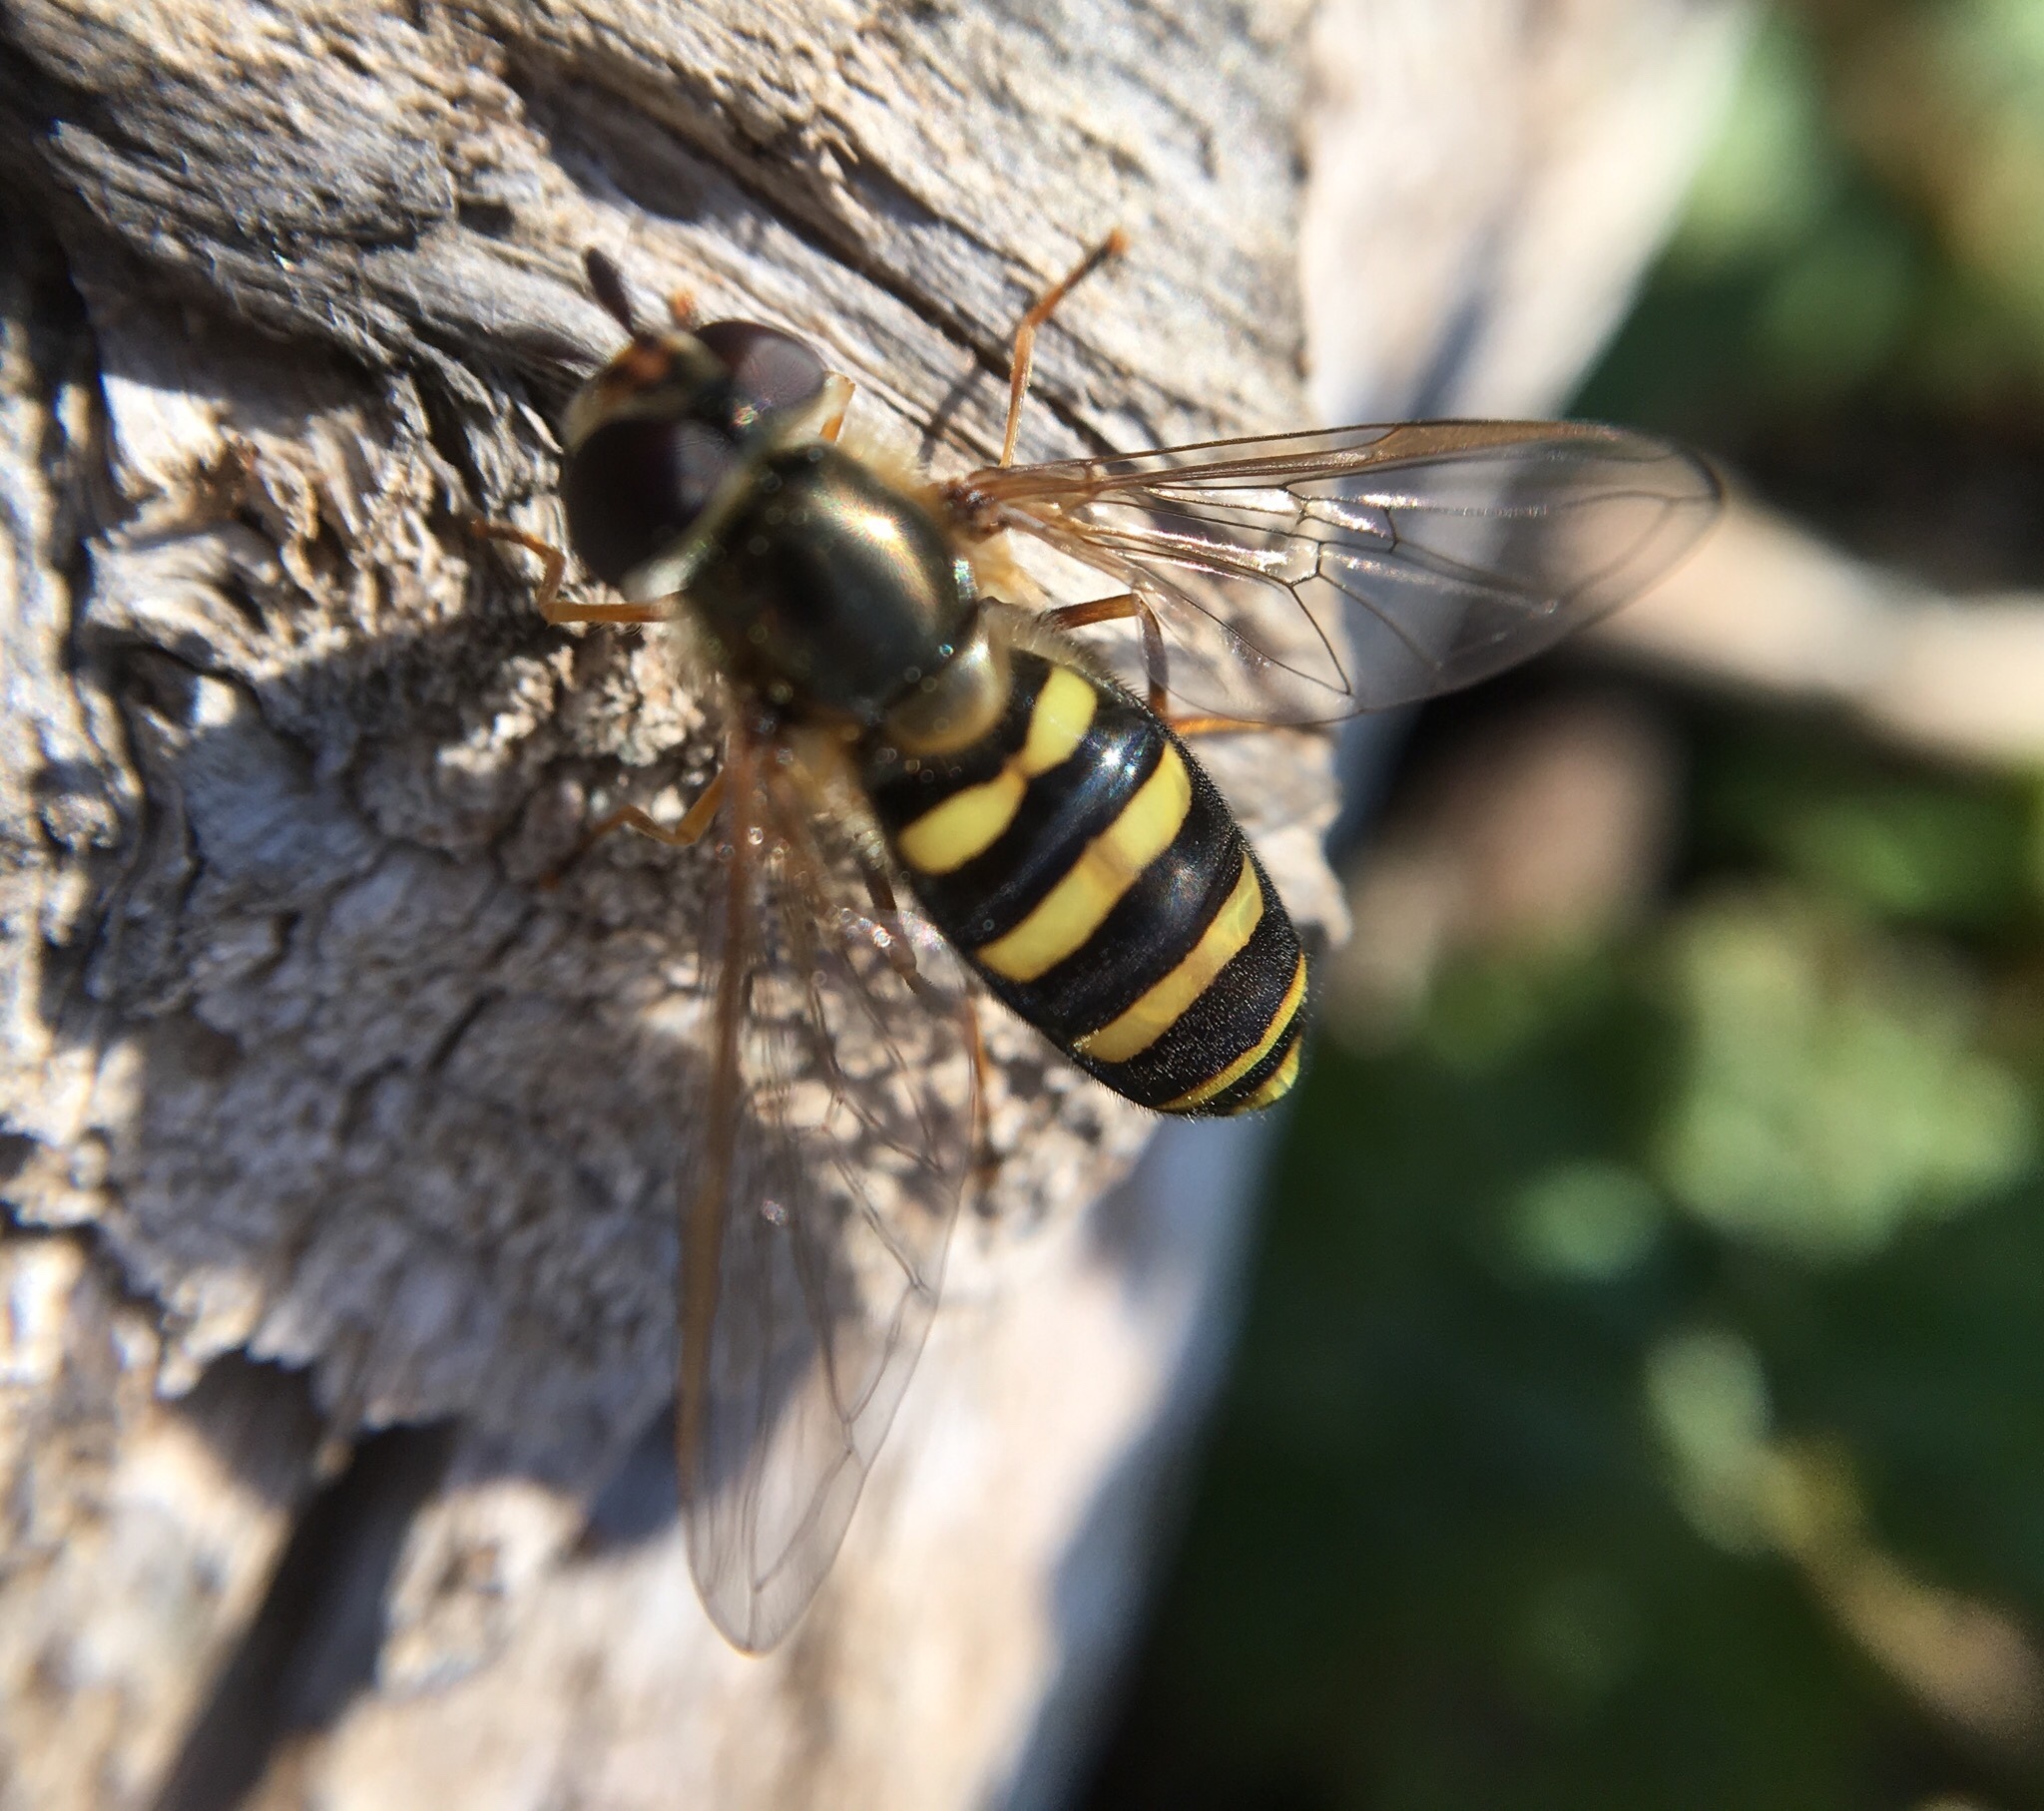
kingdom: Animalia
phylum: Arthropoda
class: Insecta
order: Diptera
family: Syrphidae
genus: Eupeodes
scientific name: Eupeodes
